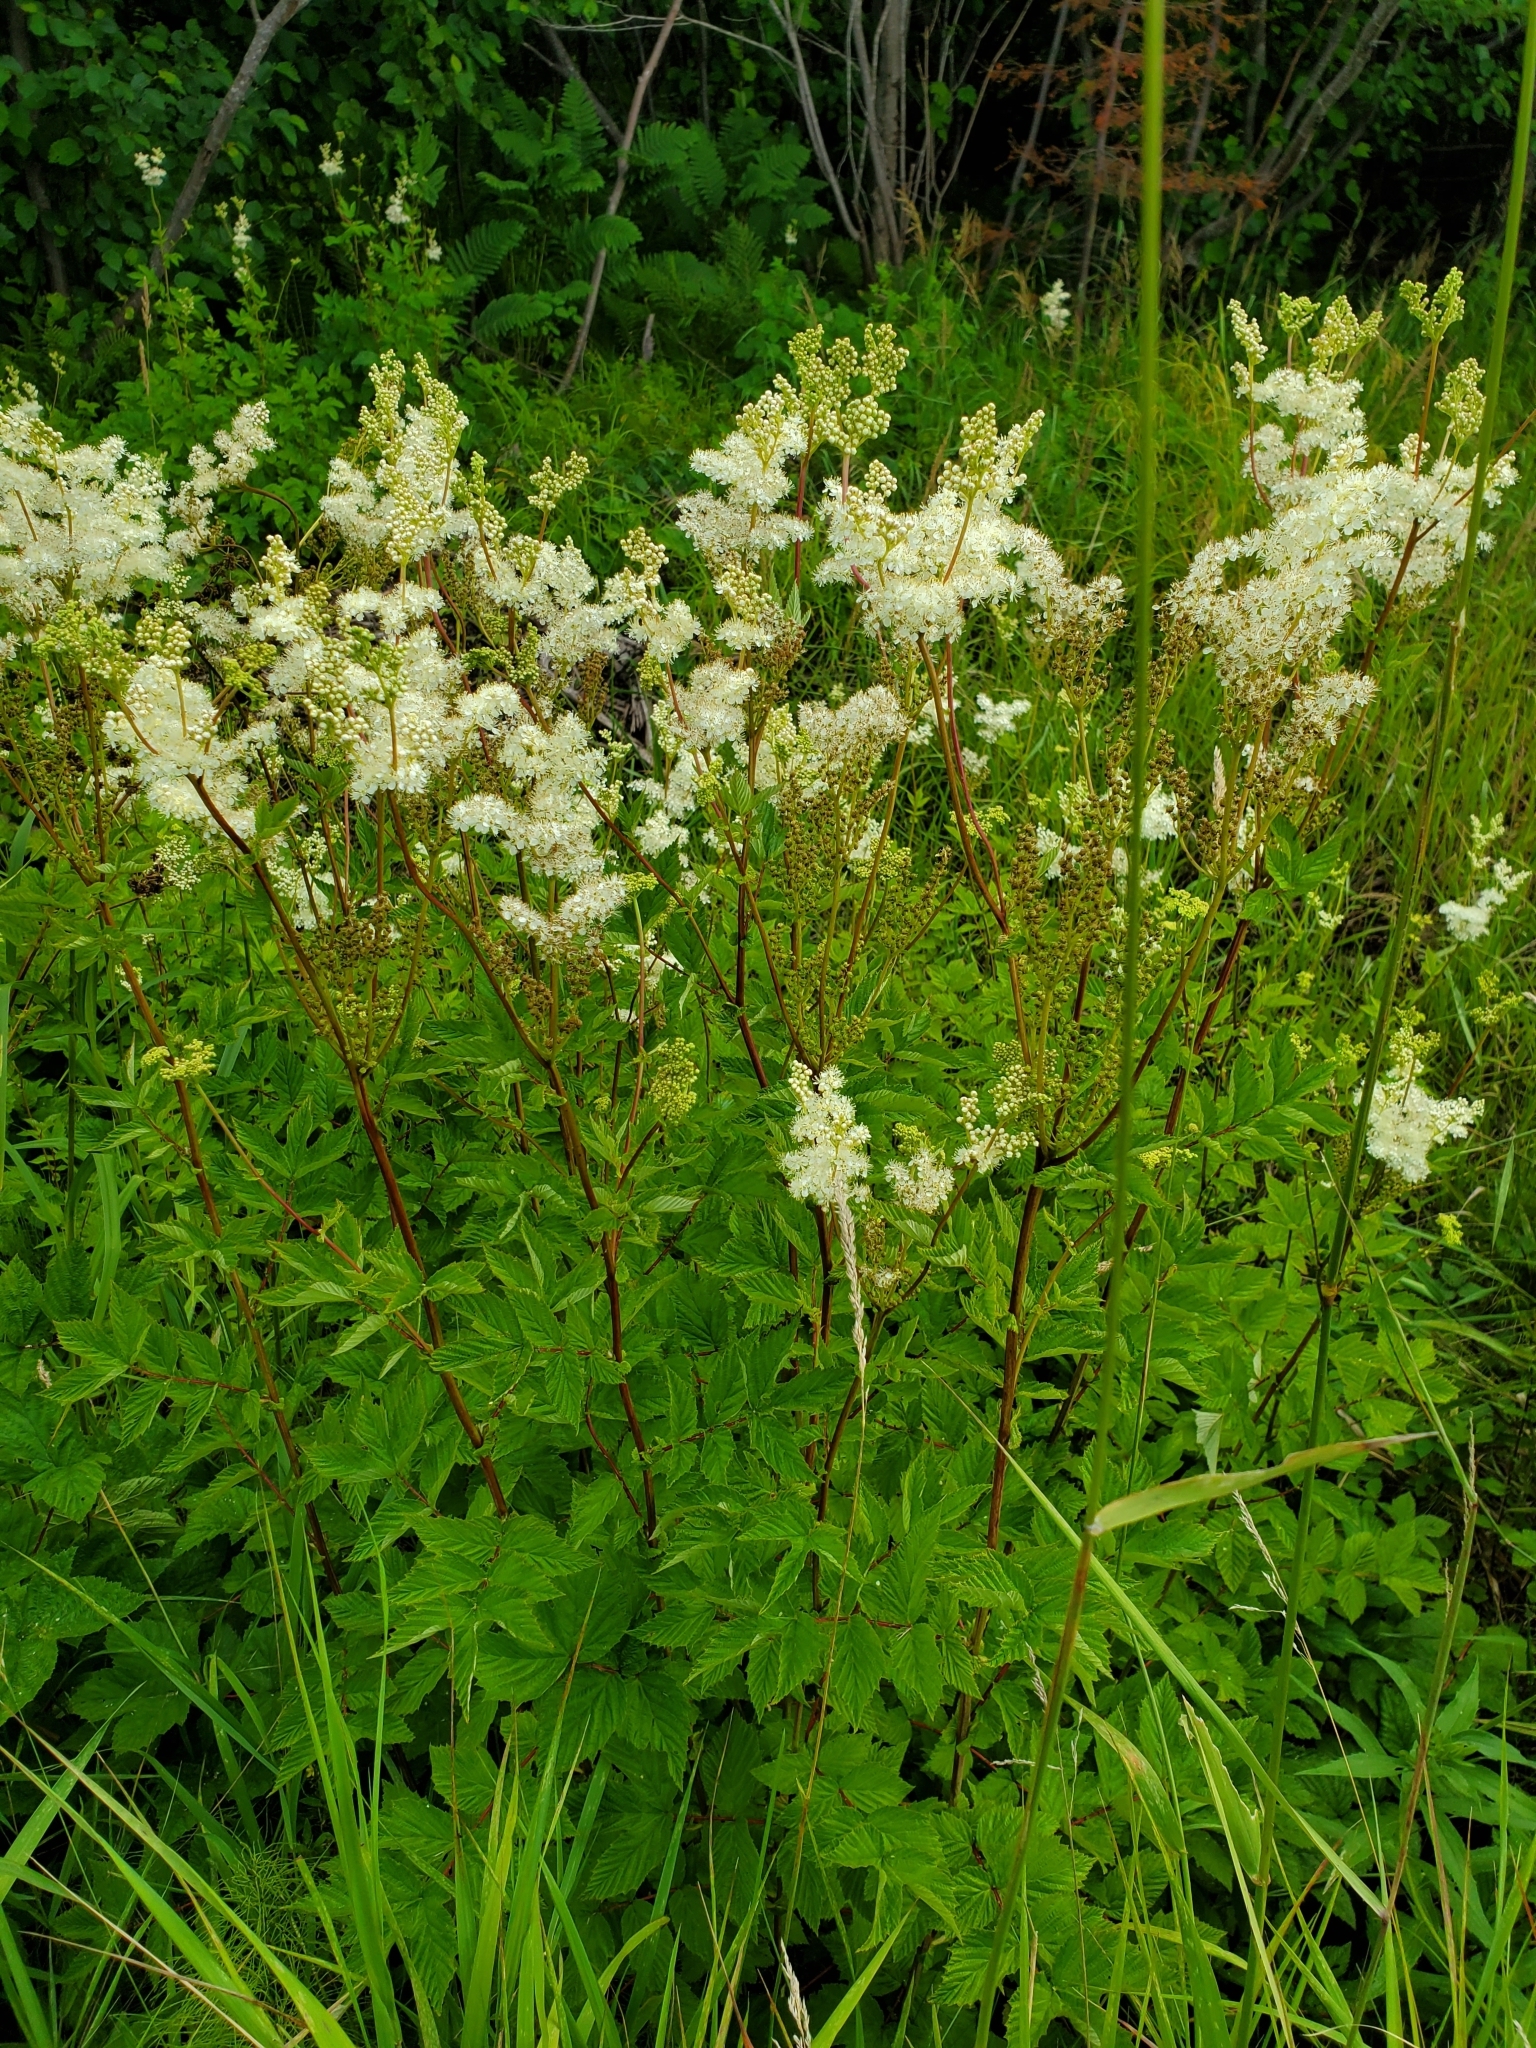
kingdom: Plantae
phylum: Tracheophyta
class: Magnoliopsida
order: Rosales
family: Rosaceae
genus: Filipendula
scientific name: Filipendula ulmaria
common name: Meadowsweet
